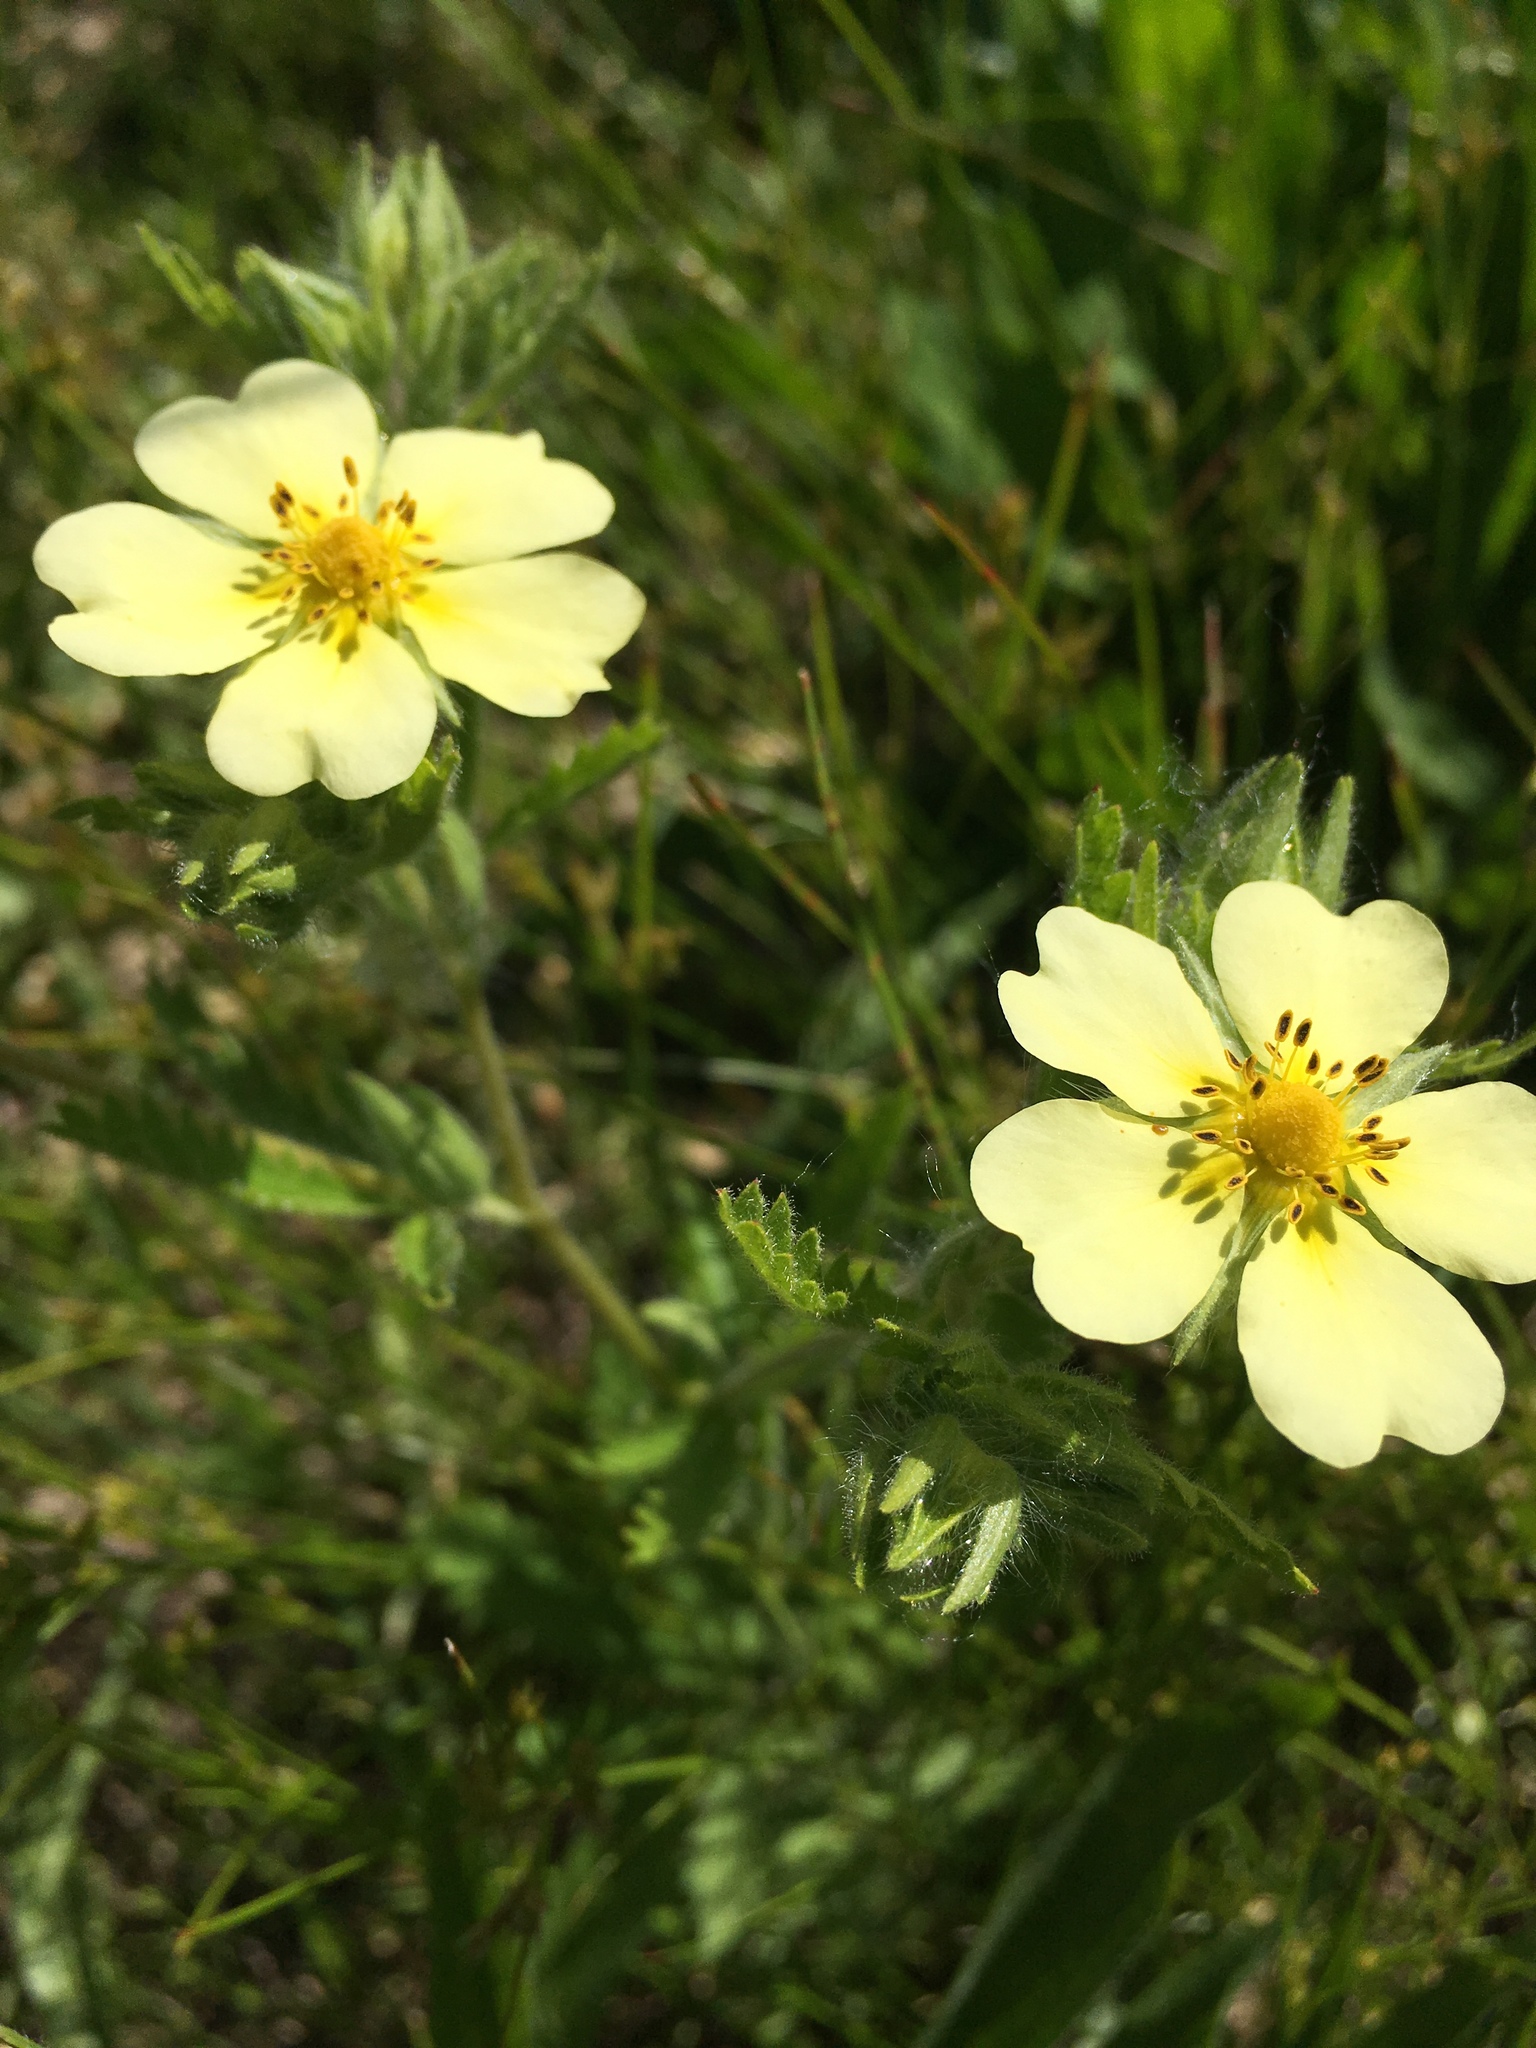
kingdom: Plantae
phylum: Tracheophyta
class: Magnoliopsida
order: Rosales
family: Rosaceae
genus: Potentilla
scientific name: Potentilla recta
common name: Sulphur cinquefoil
